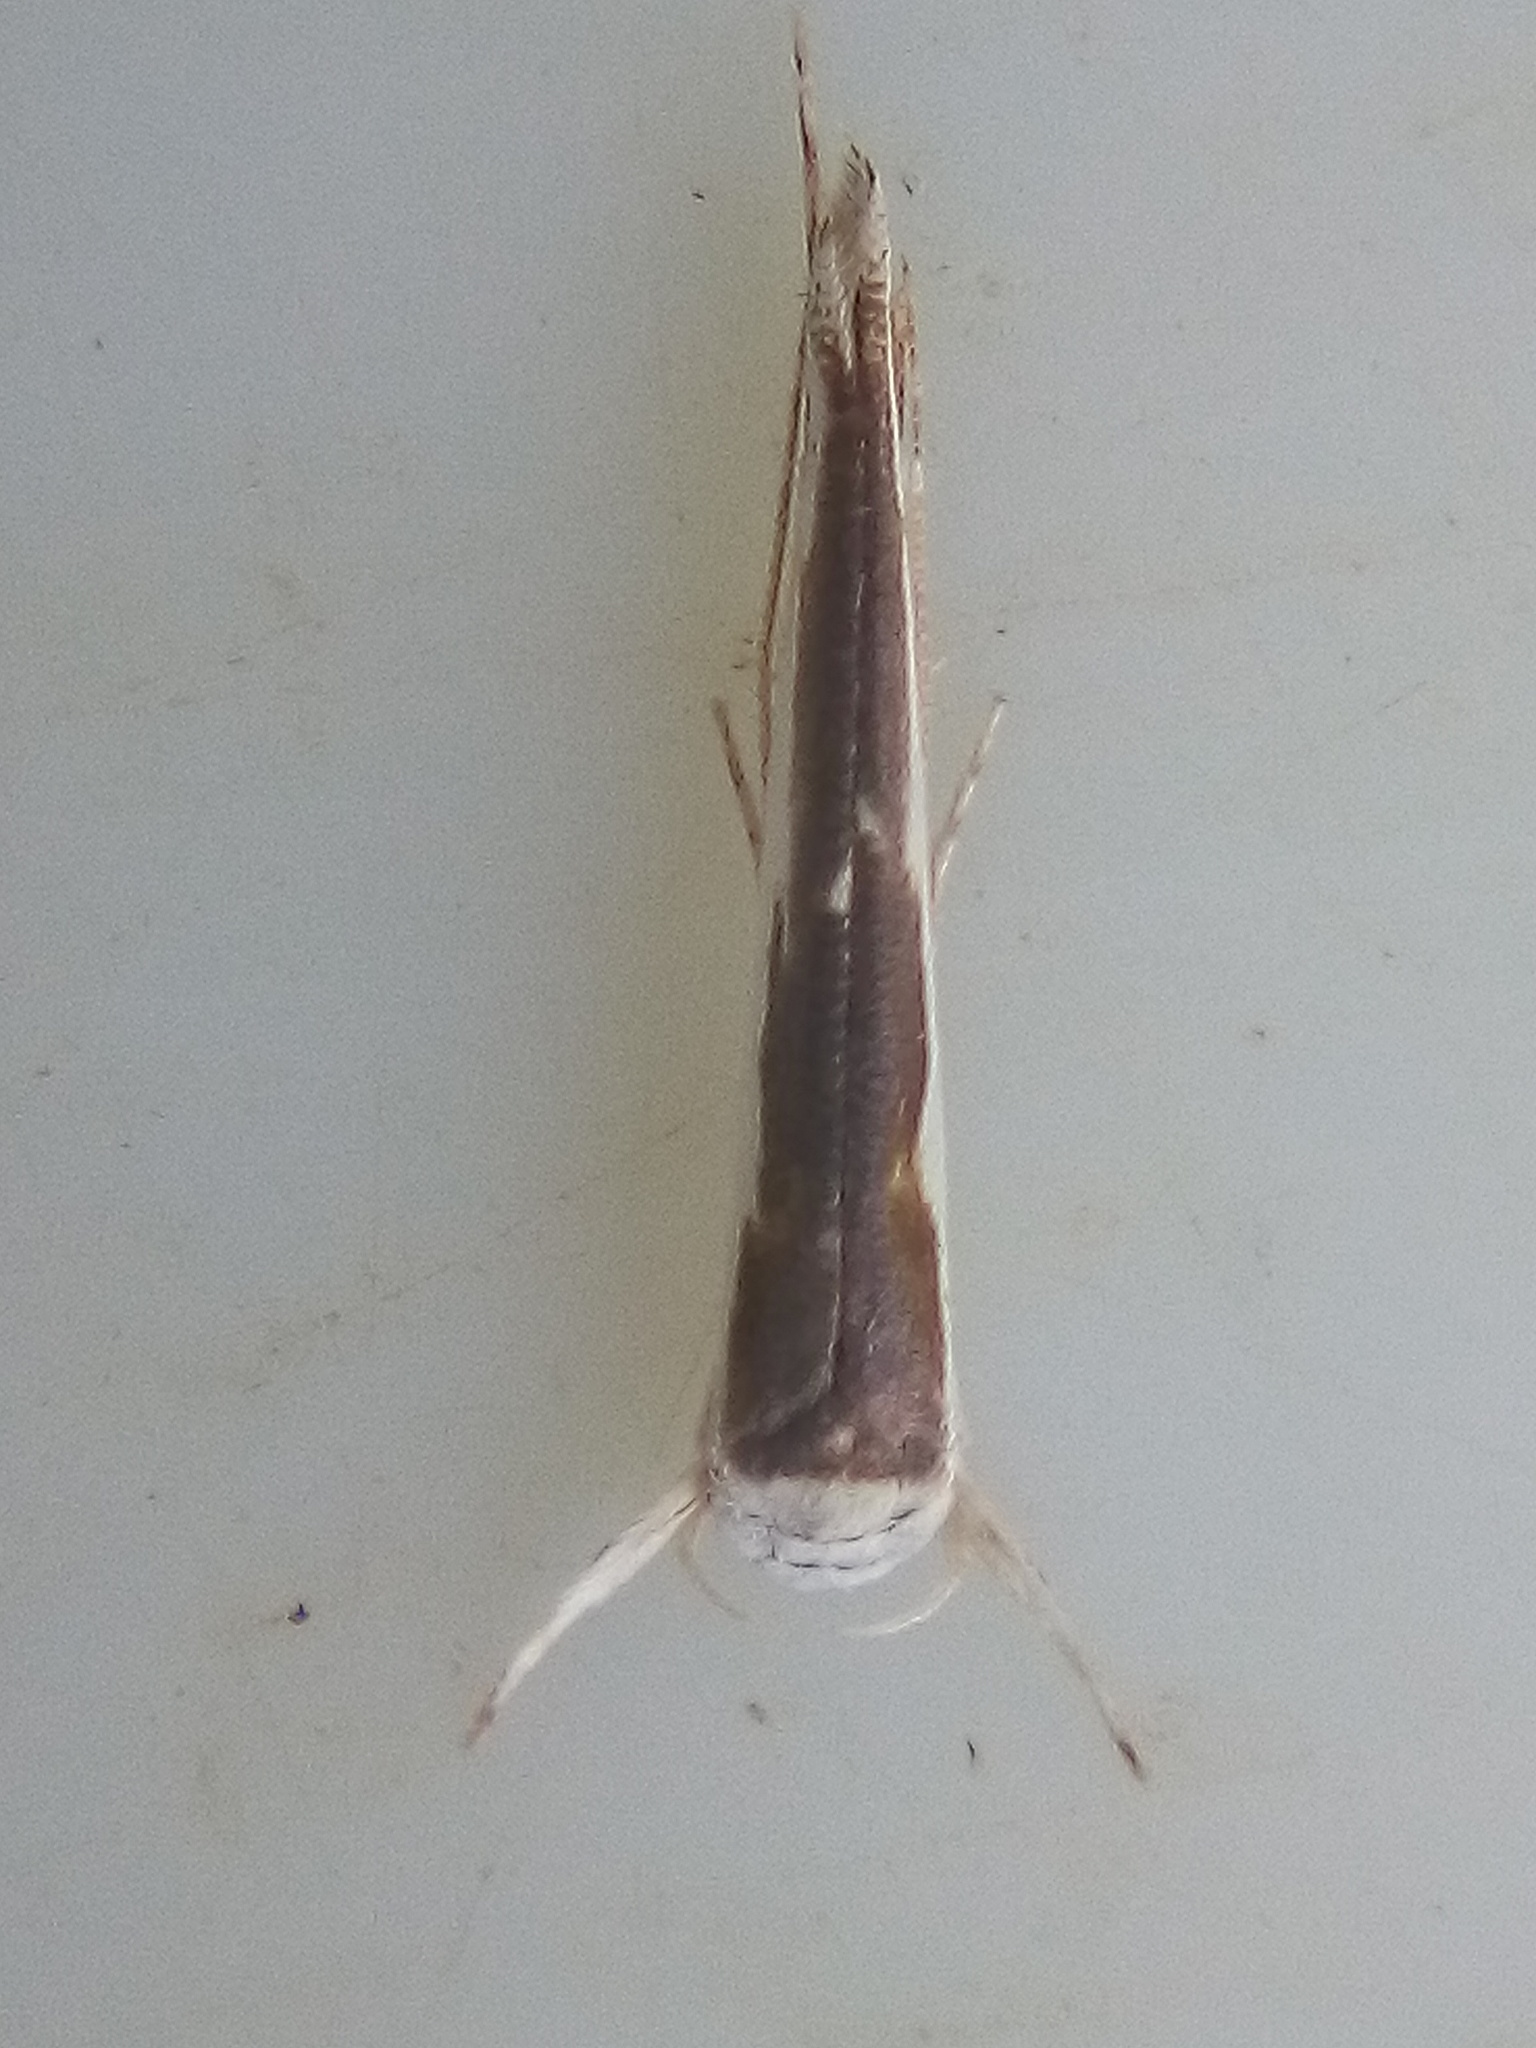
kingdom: Animalia
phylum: Arthropoda
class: Insecta
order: Lepidoptera
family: Roeslerstammiidae
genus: Vanicela
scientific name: Vanicela disjunctella
